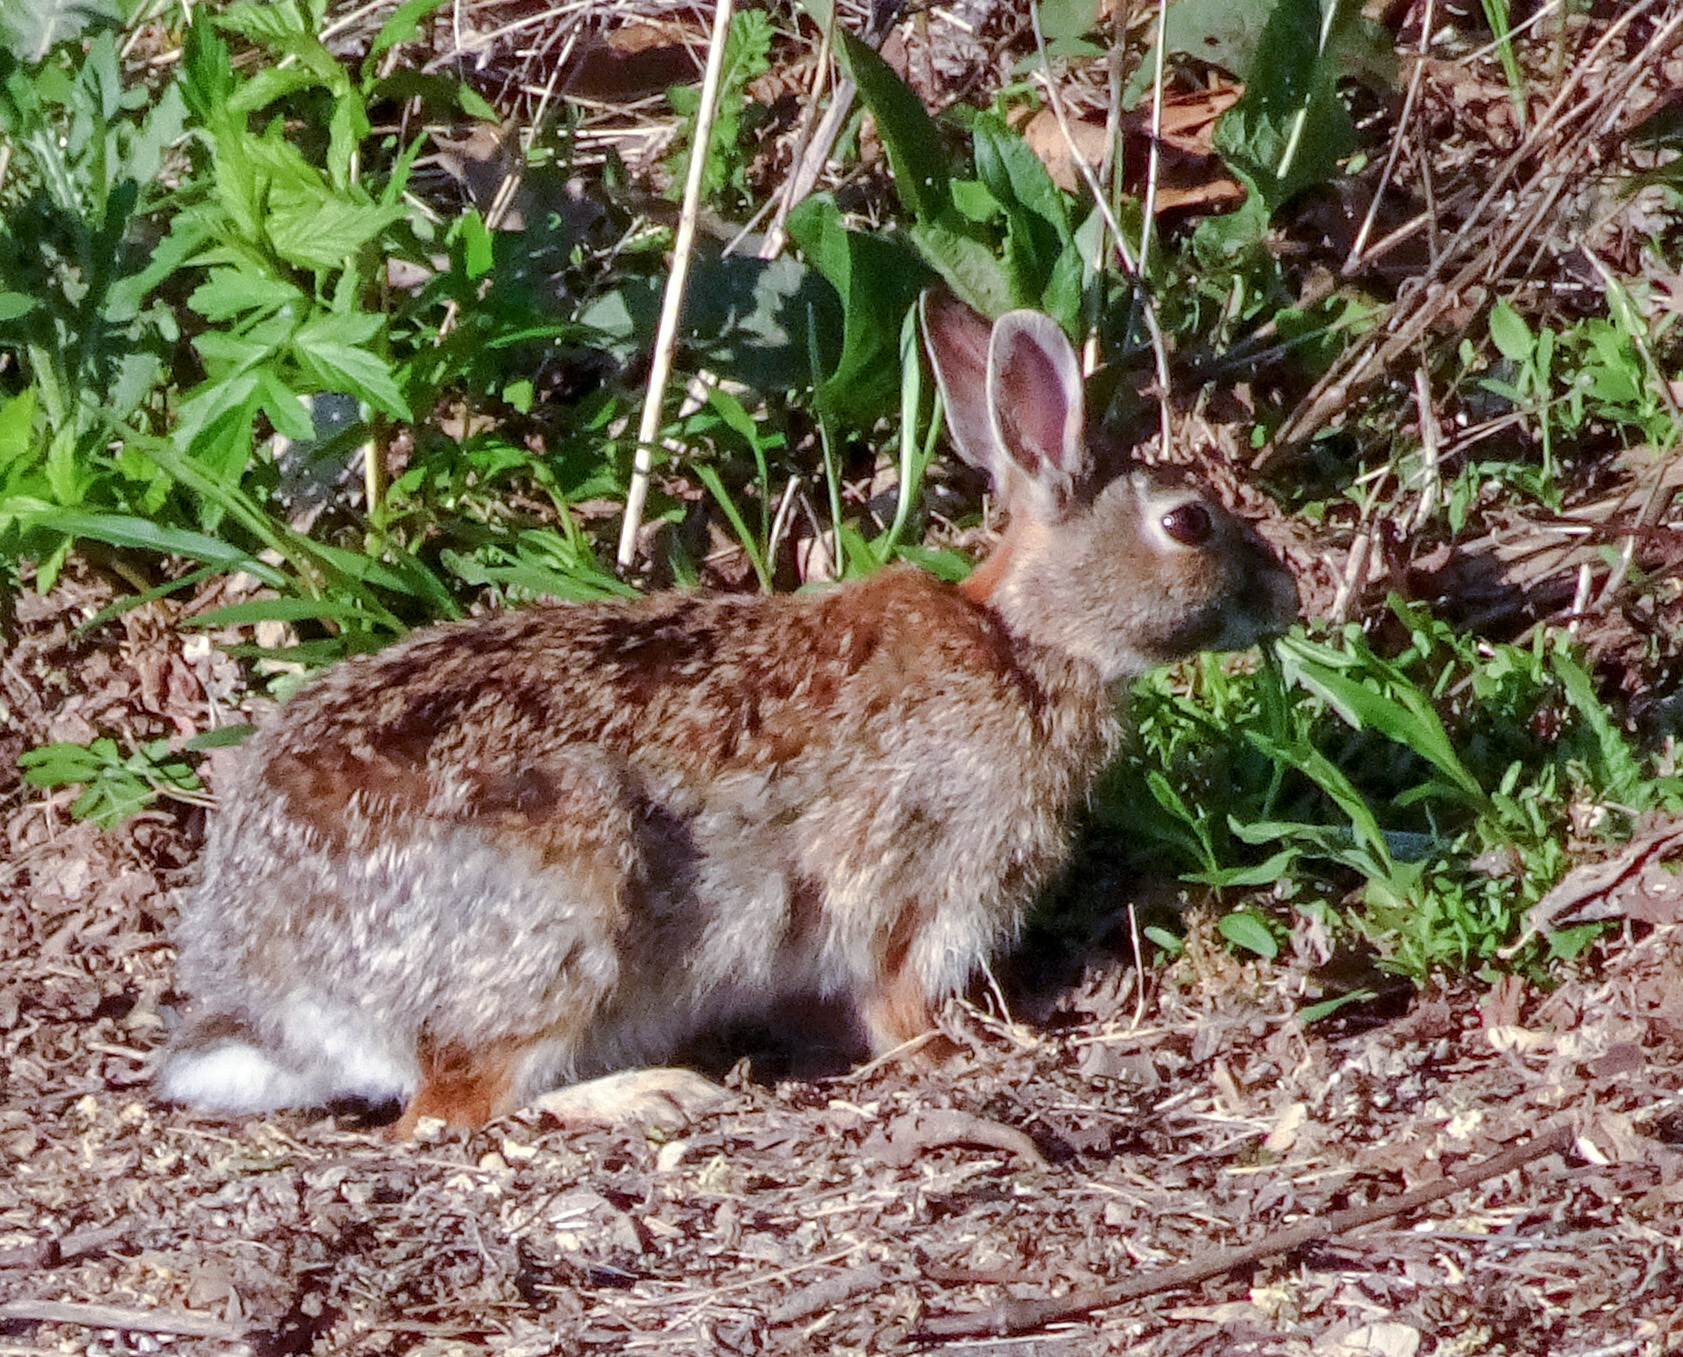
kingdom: Animalia
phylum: Chordata
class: Mammalia
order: Lagomorpha
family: Leporidae
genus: Sylvilagus
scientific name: Sylvilagus floridanus
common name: Eastern cottontail
